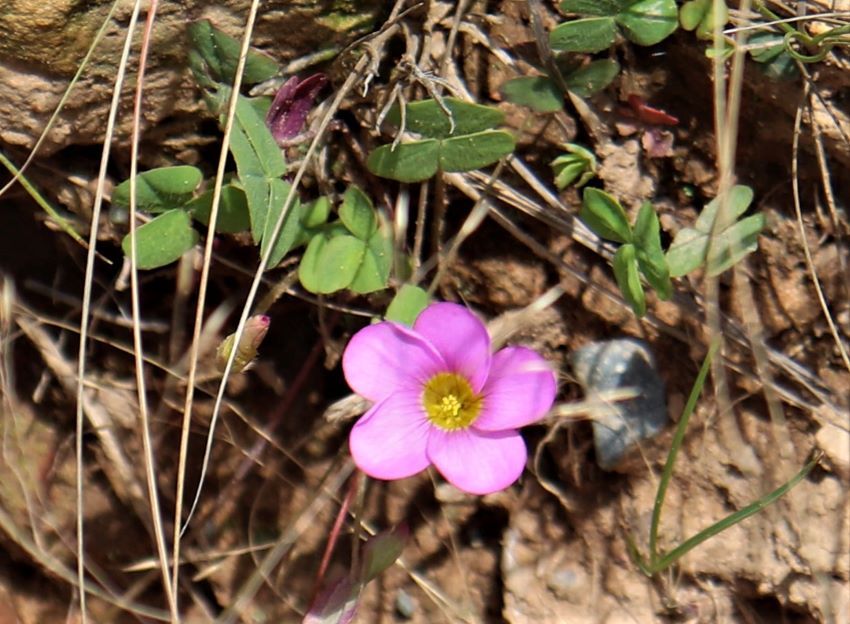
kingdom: Plantae
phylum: Tracheophyta
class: Magnoliopsida
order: Oxalidales
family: Oxalidaceae
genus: Oxalis
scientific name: Oxalis obliquifolia
